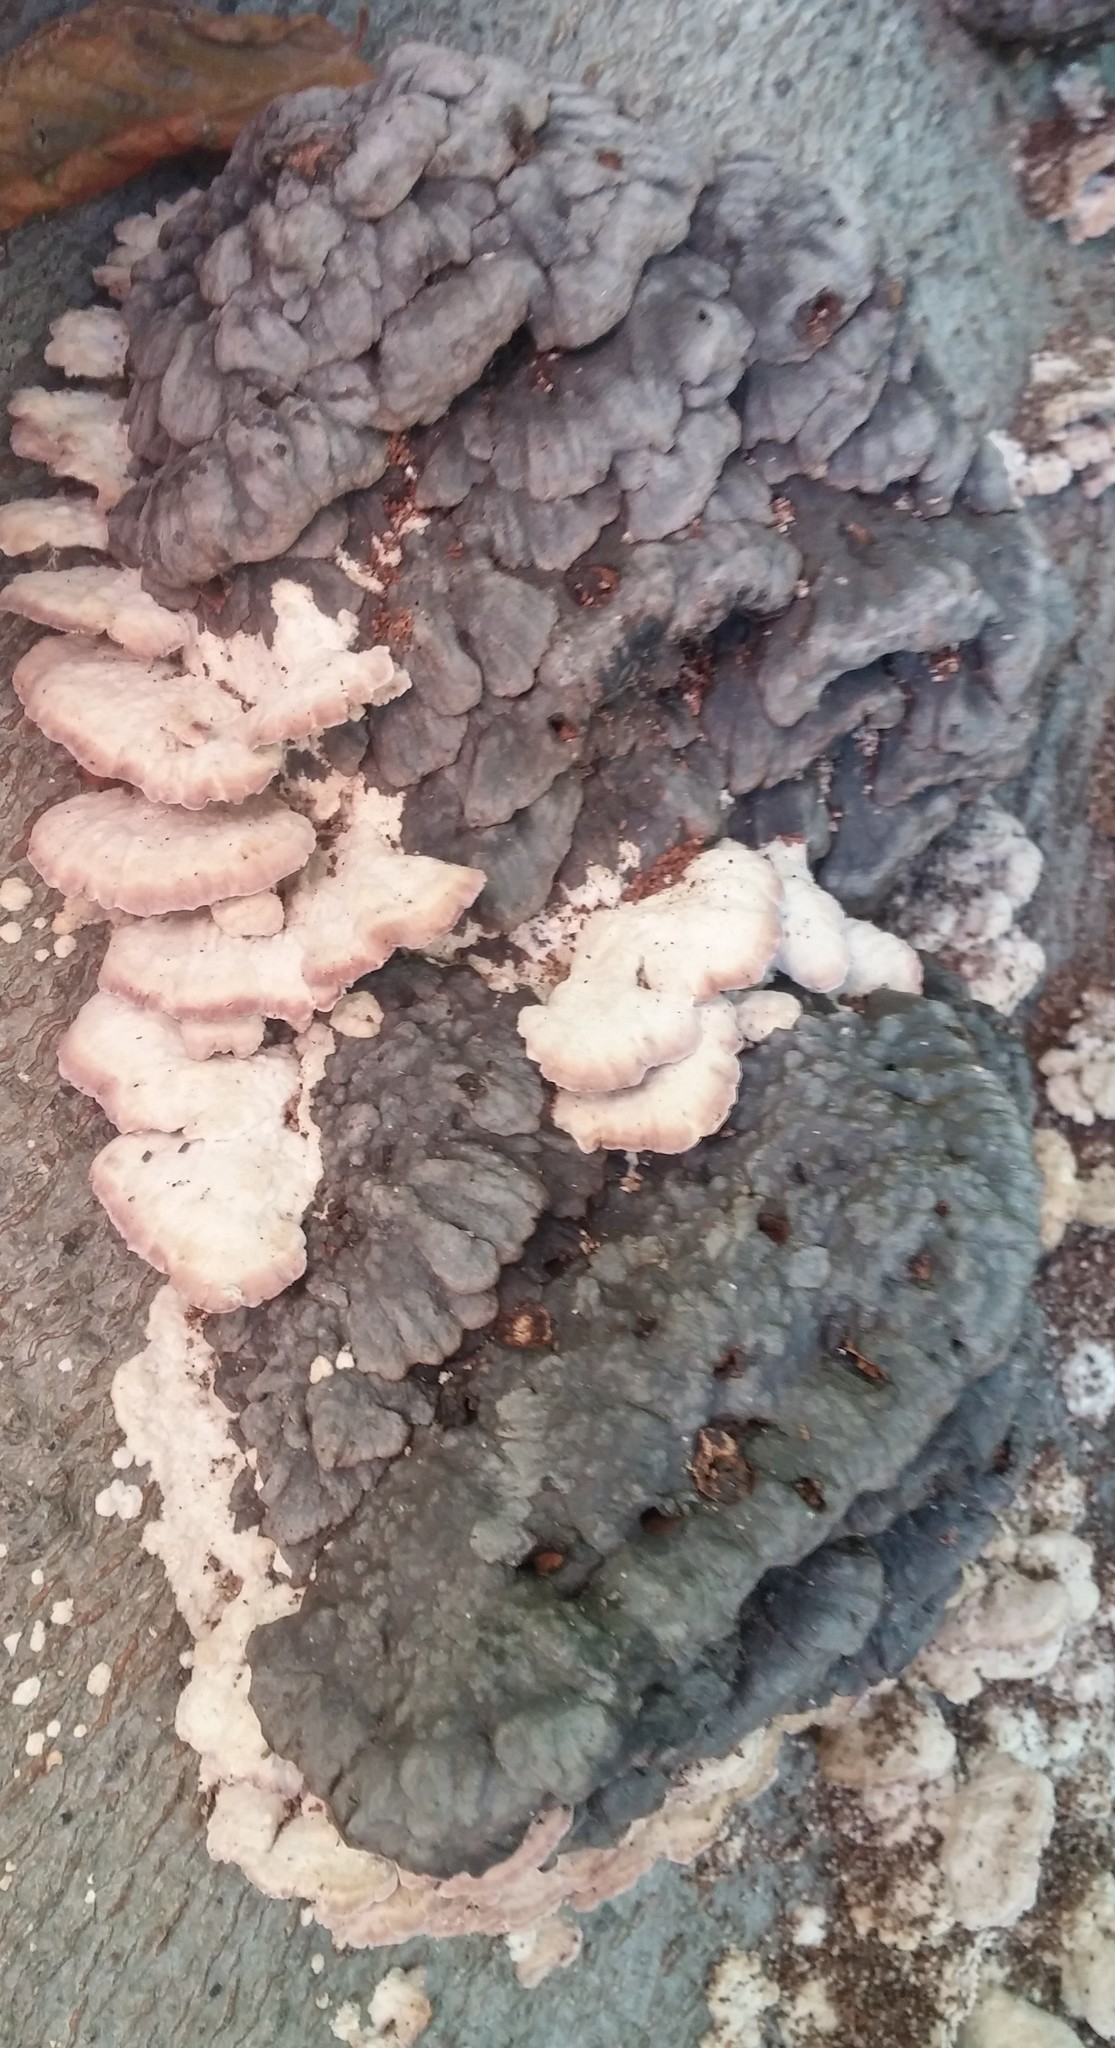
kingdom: Fungi
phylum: Basidiomycota
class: Agaricomycetes
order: Hymenochaetales
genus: Trichaptum
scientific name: Trichaptum biforme
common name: Violet-toothed polypore
